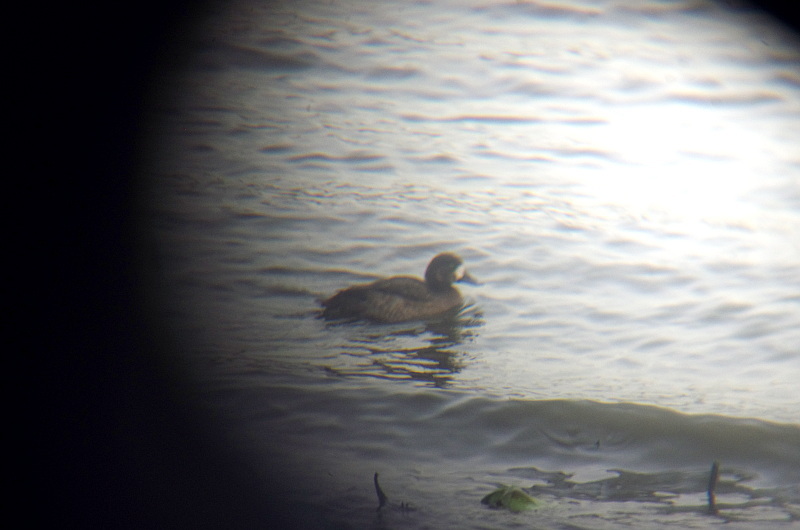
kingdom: Animalia
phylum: Chordata
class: Aves
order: Anseriformes
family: Anatidae
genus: Aythya
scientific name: Aythya marila
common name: Greater scaup
